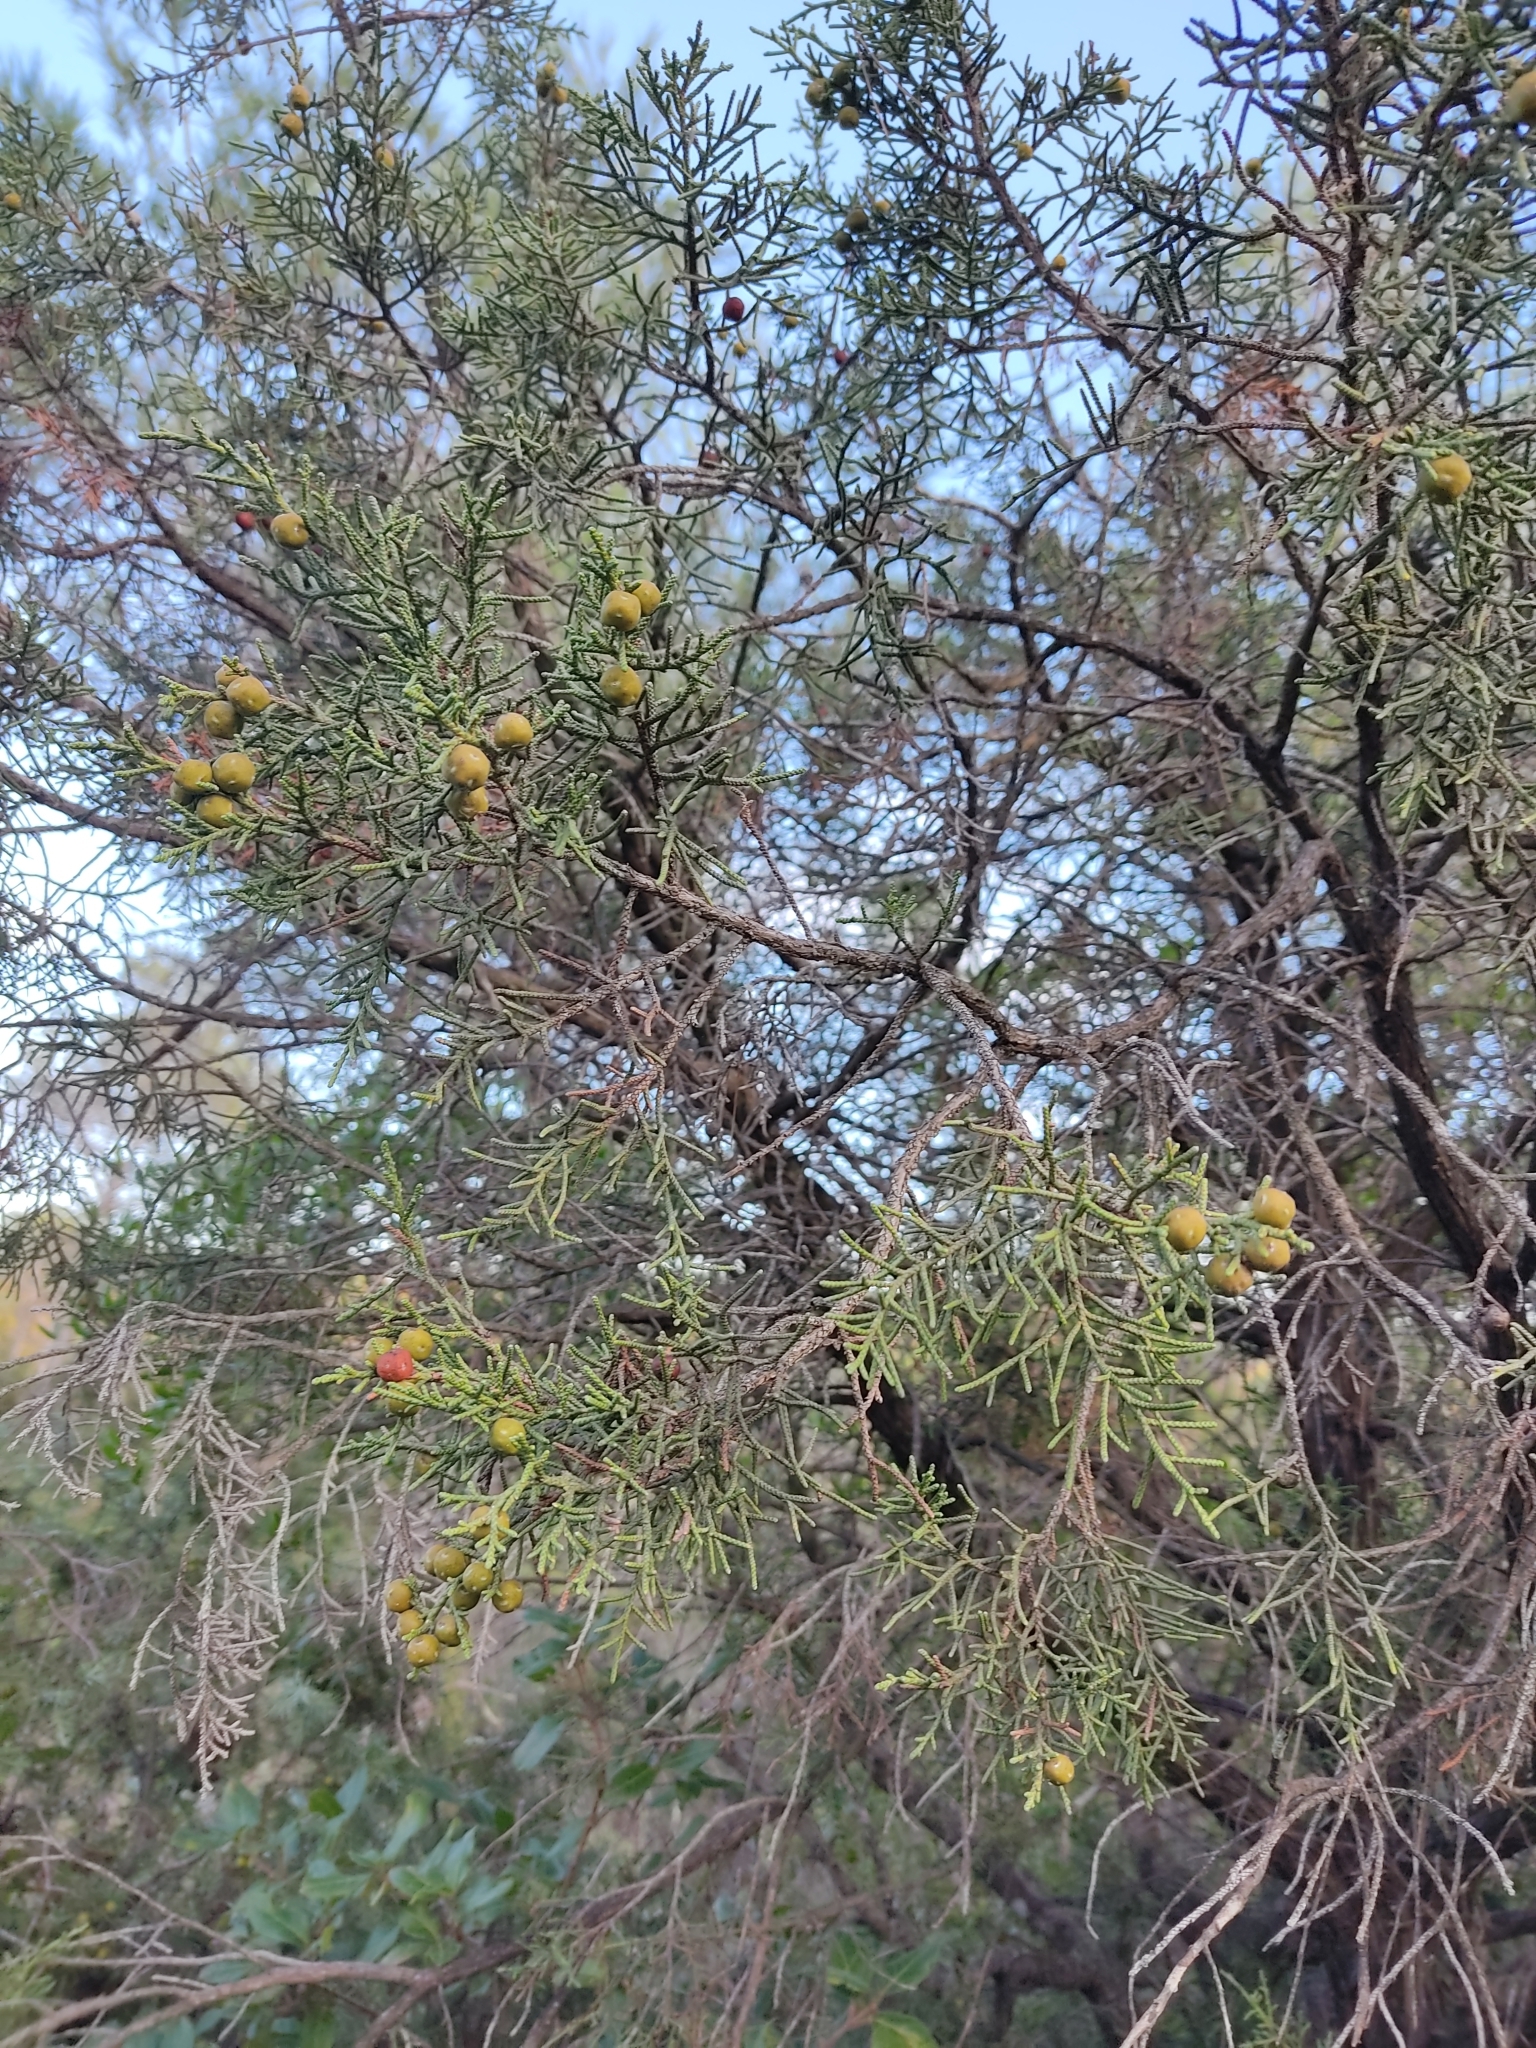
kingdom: Plantae
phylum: Tracheophyta
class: Pinopsida
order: Pinales
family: Cupressaceae
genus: Juniperus
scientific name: Juniperus phoenicea
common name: Phoenician juniper
